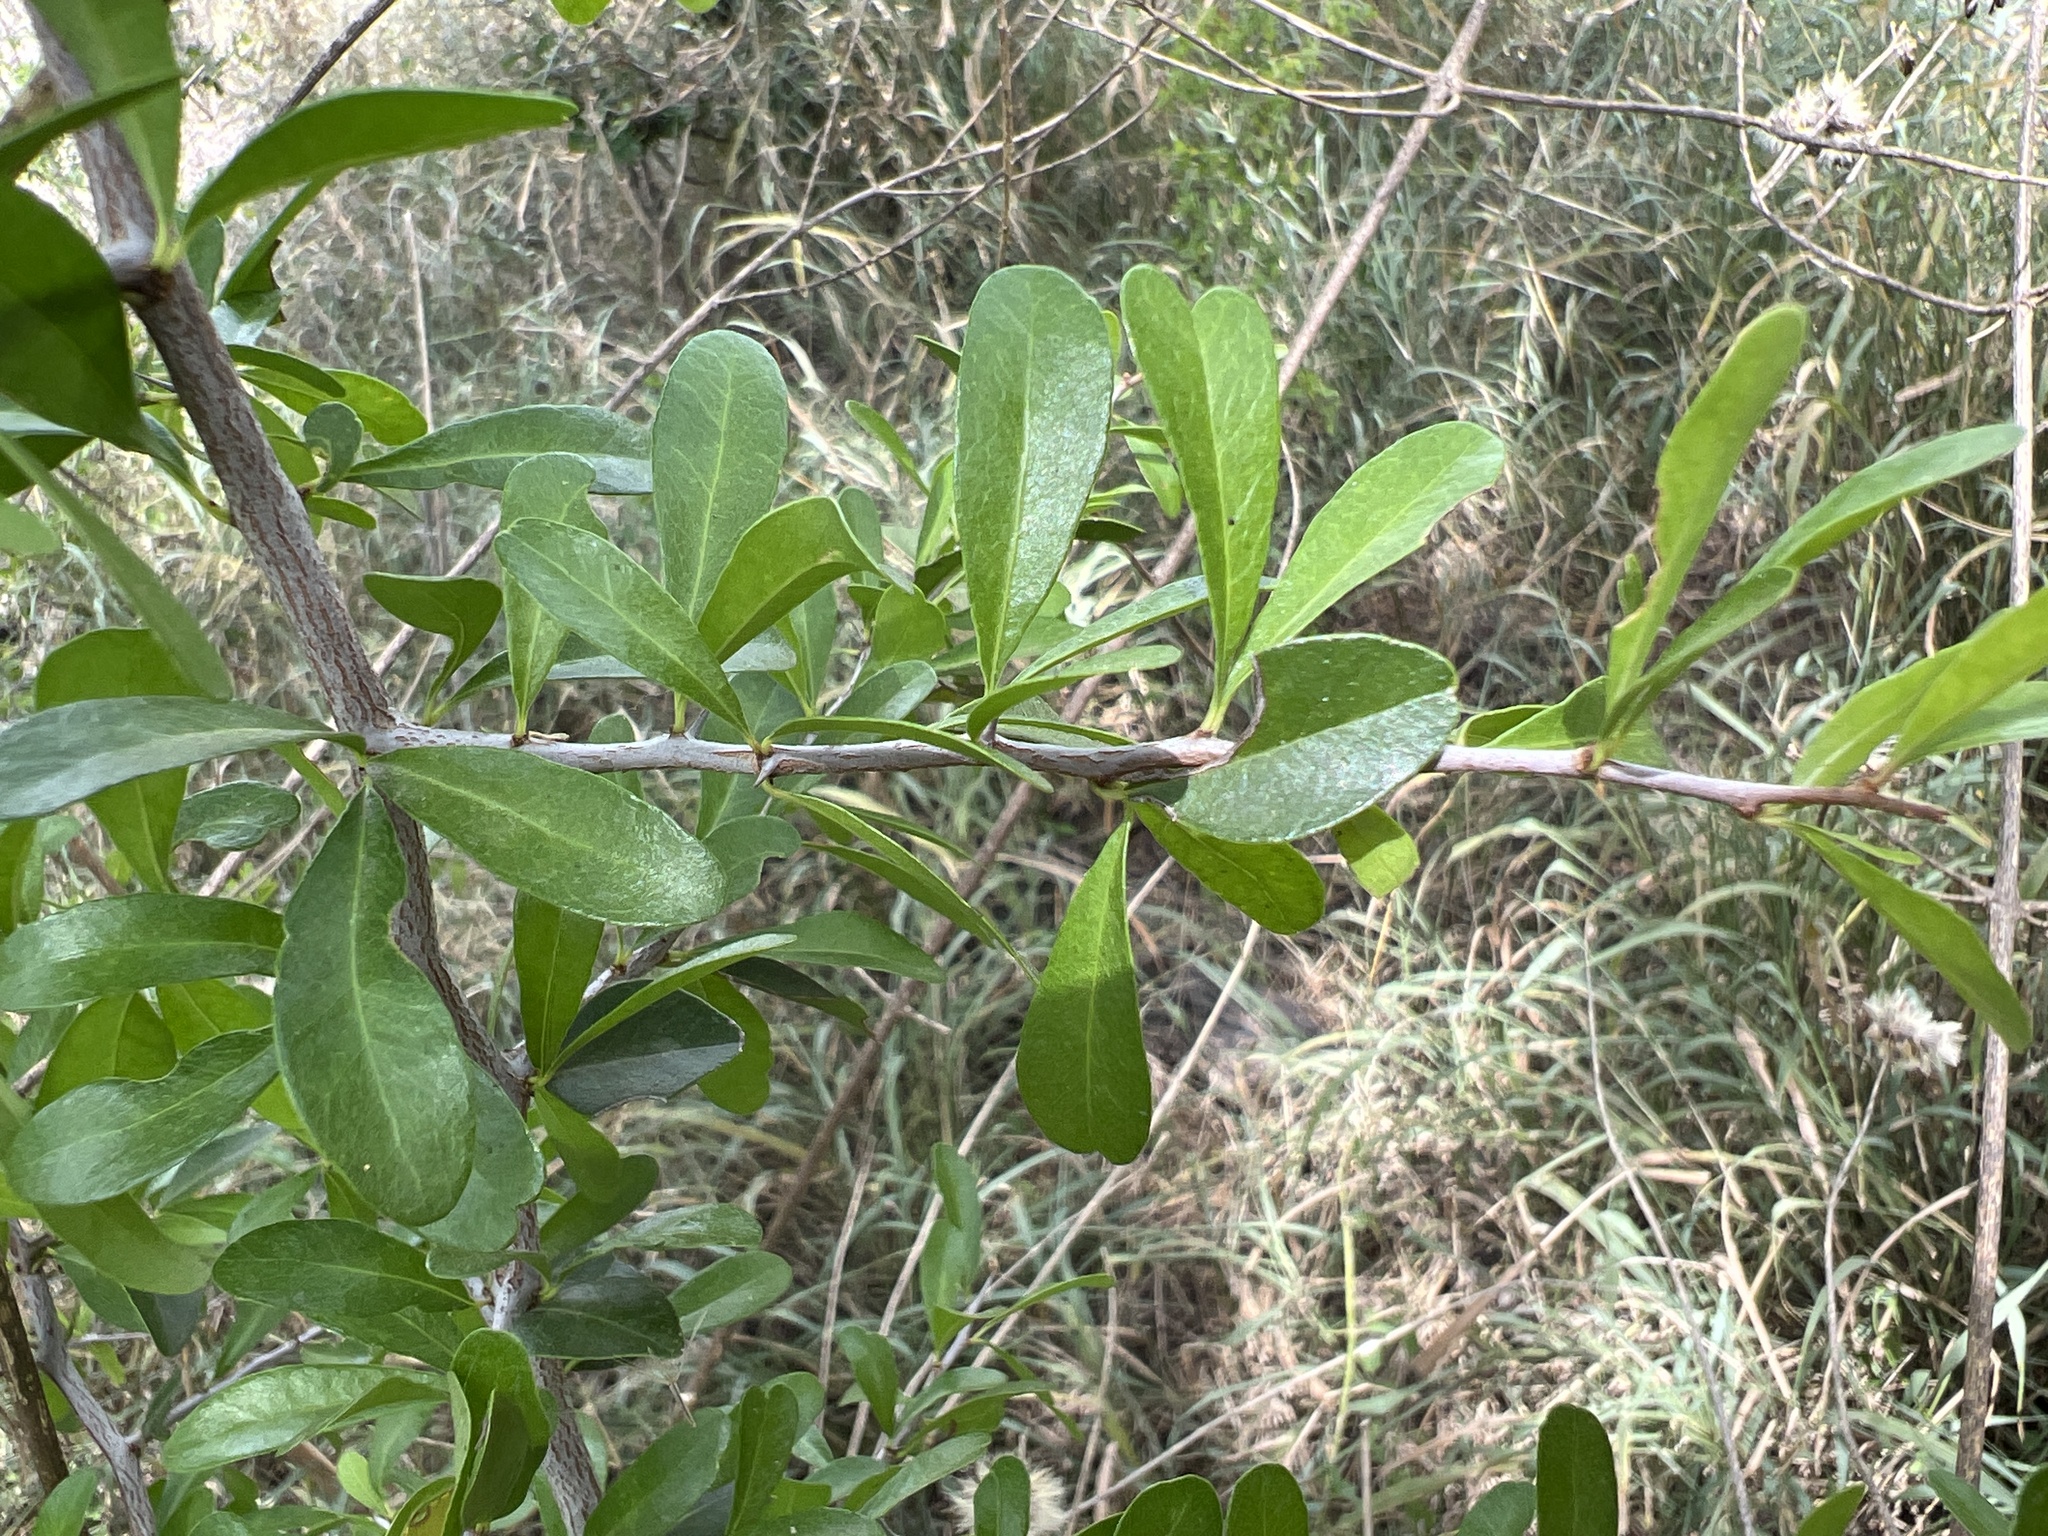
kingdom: Plantae
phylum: Tracheophyta
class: Magnoliopsida
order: Ericales
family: Sapotaceae
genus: Sideroxylon
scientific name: Sideroxylon celastrinum
